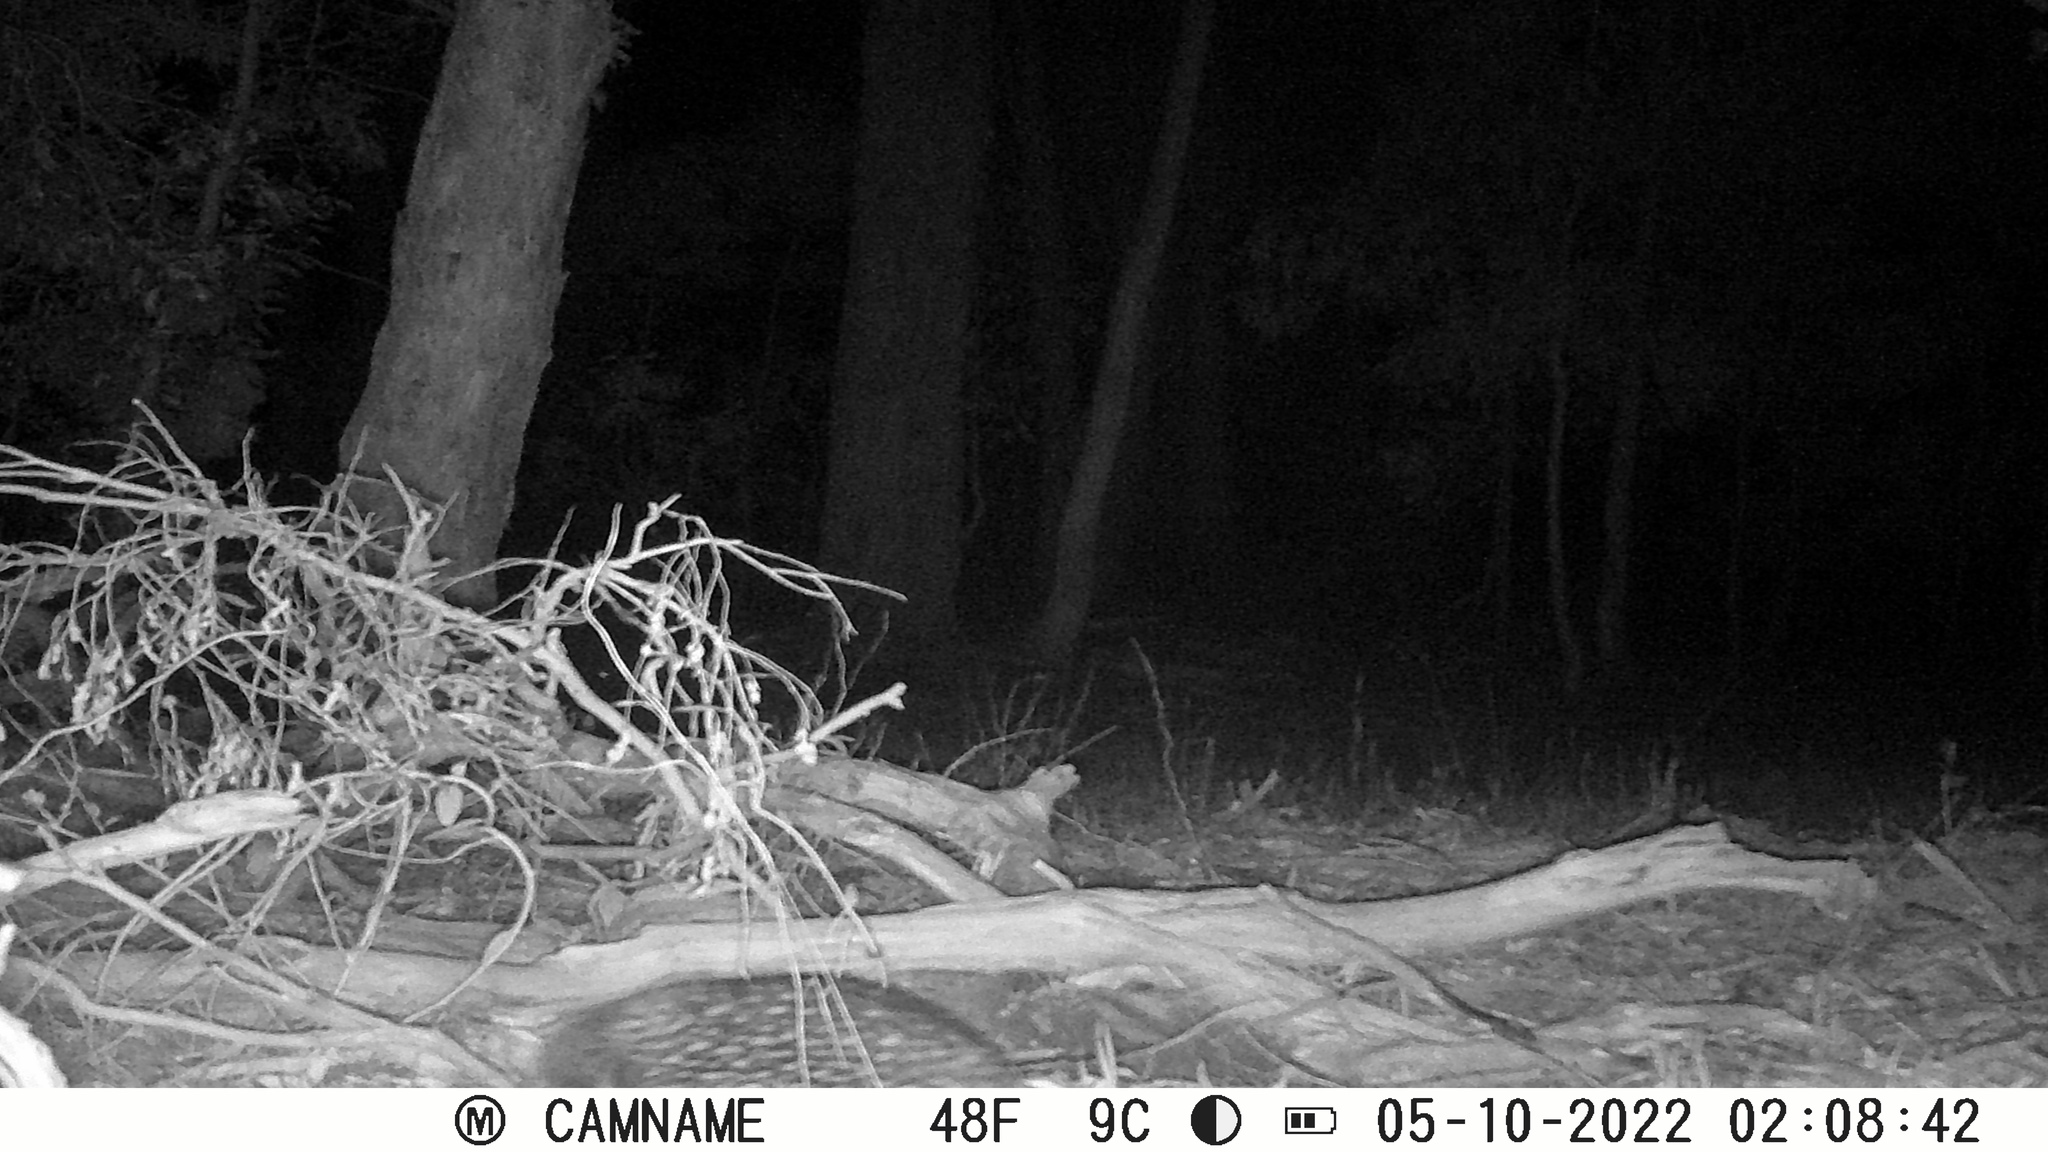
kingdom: Animalia
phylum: Chordata
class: Mammalia
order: Monotremata
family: Tachyglossidae
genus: Tachyglossus
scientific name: Tachyglossus aculeatus
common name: Short-beaked echidna
